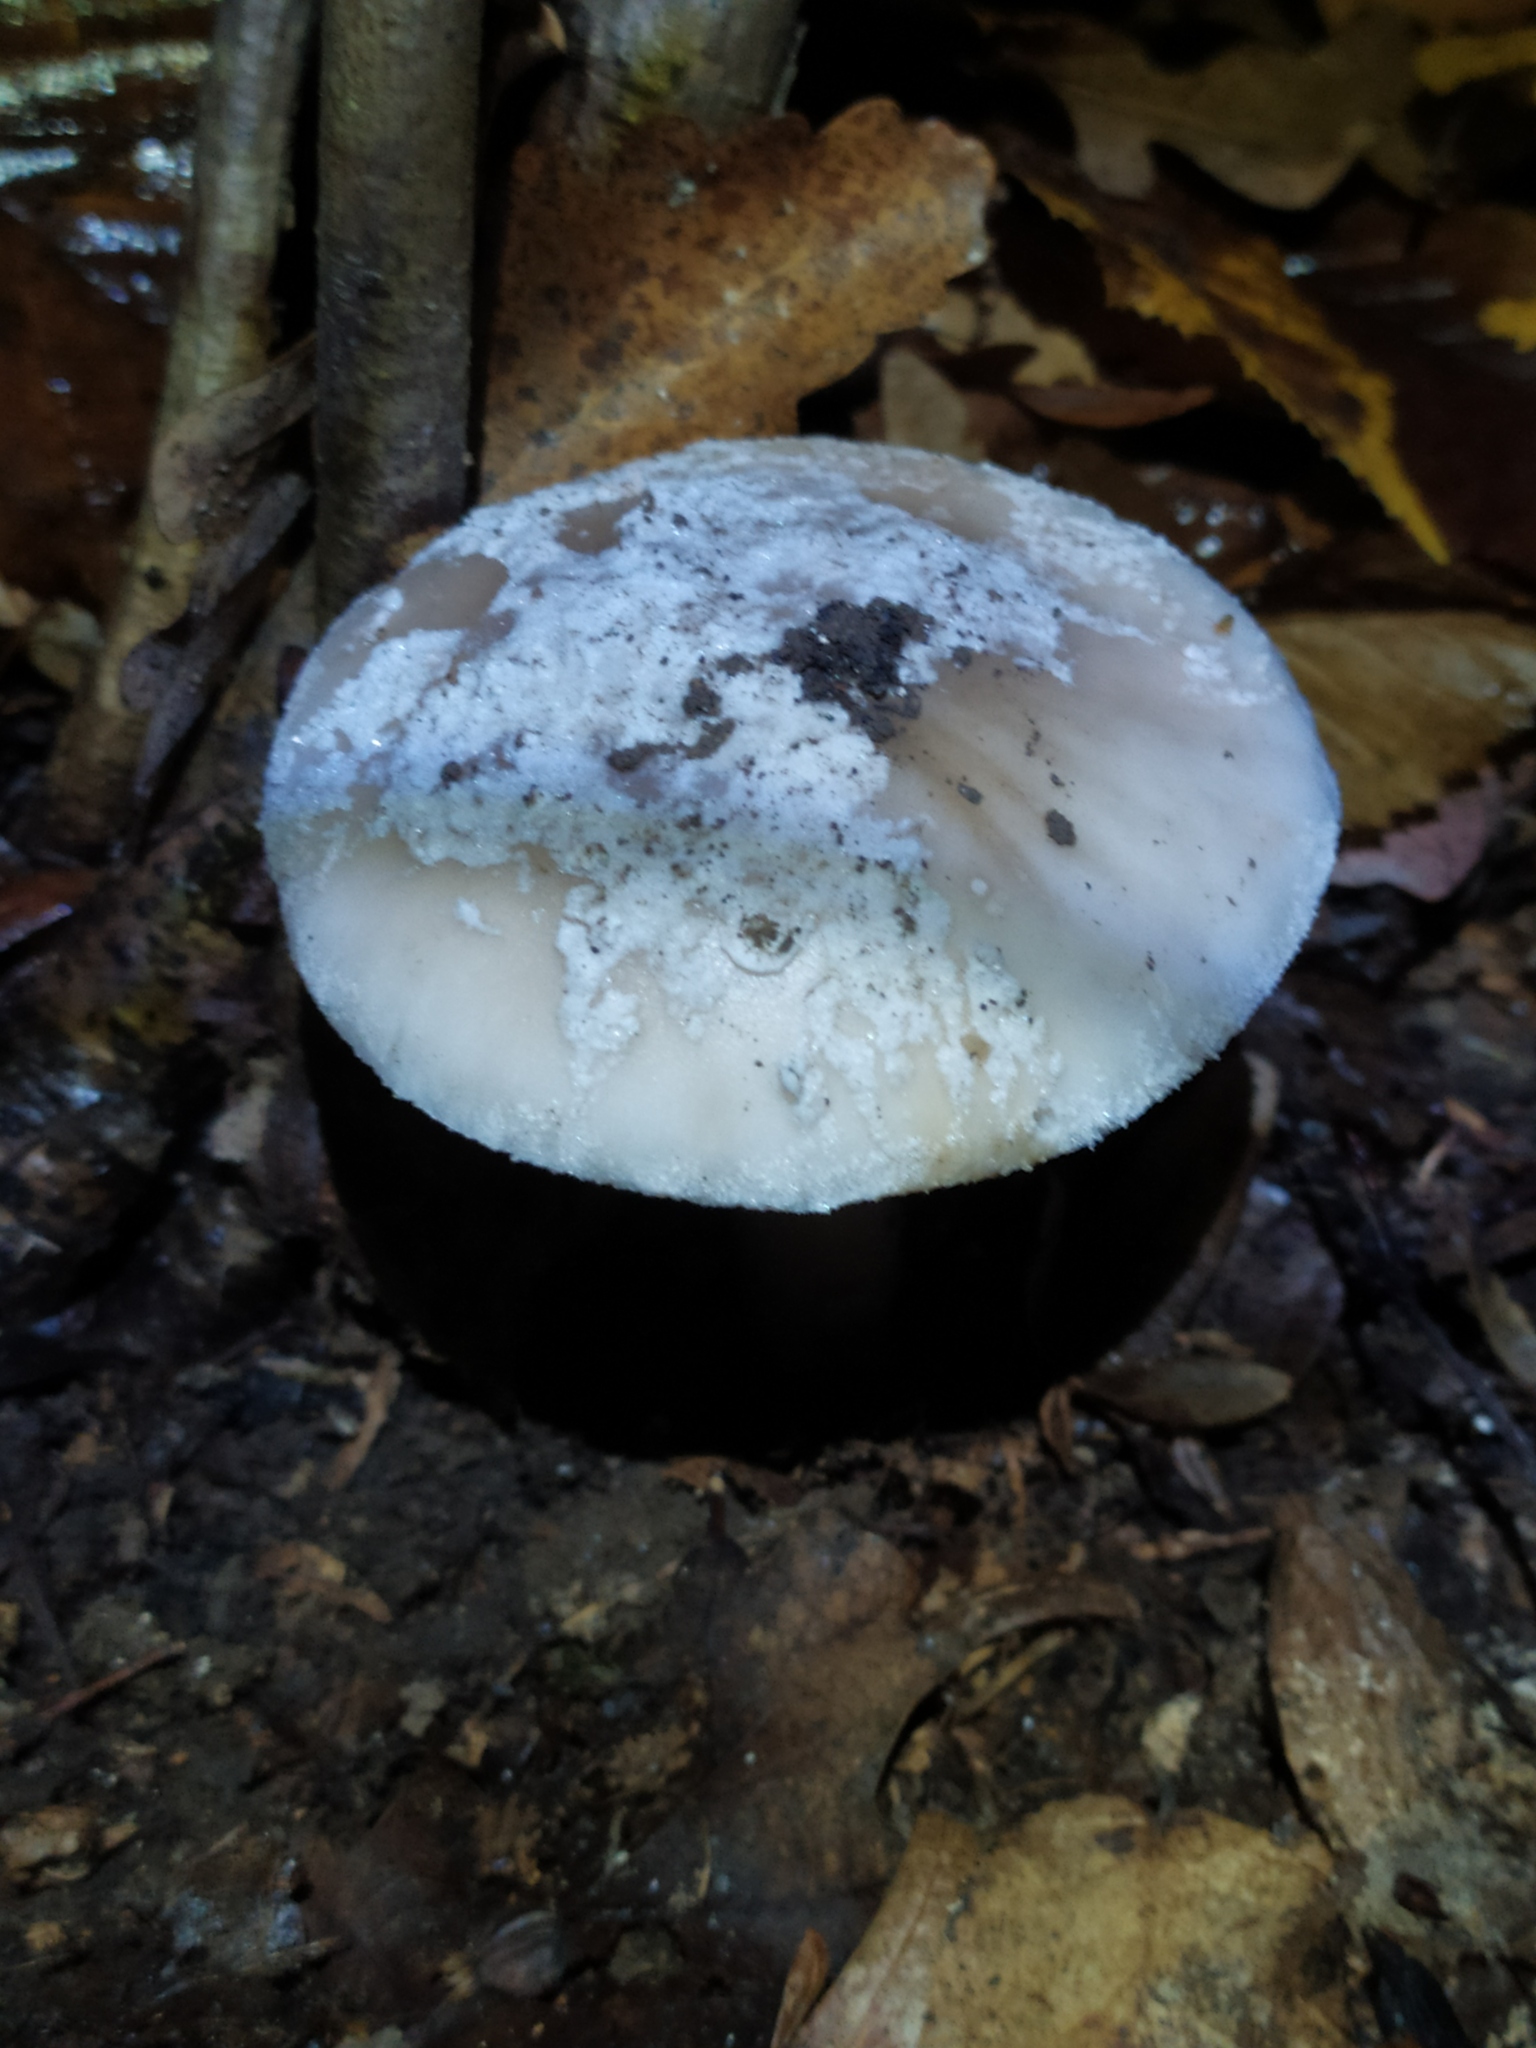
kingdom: Fungi
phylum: Basidiomycota
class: Agaricomycetes
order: Agaricales
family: Amanitaceae
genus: Amanita
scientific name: Amanita excelsa
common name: European false blusher
